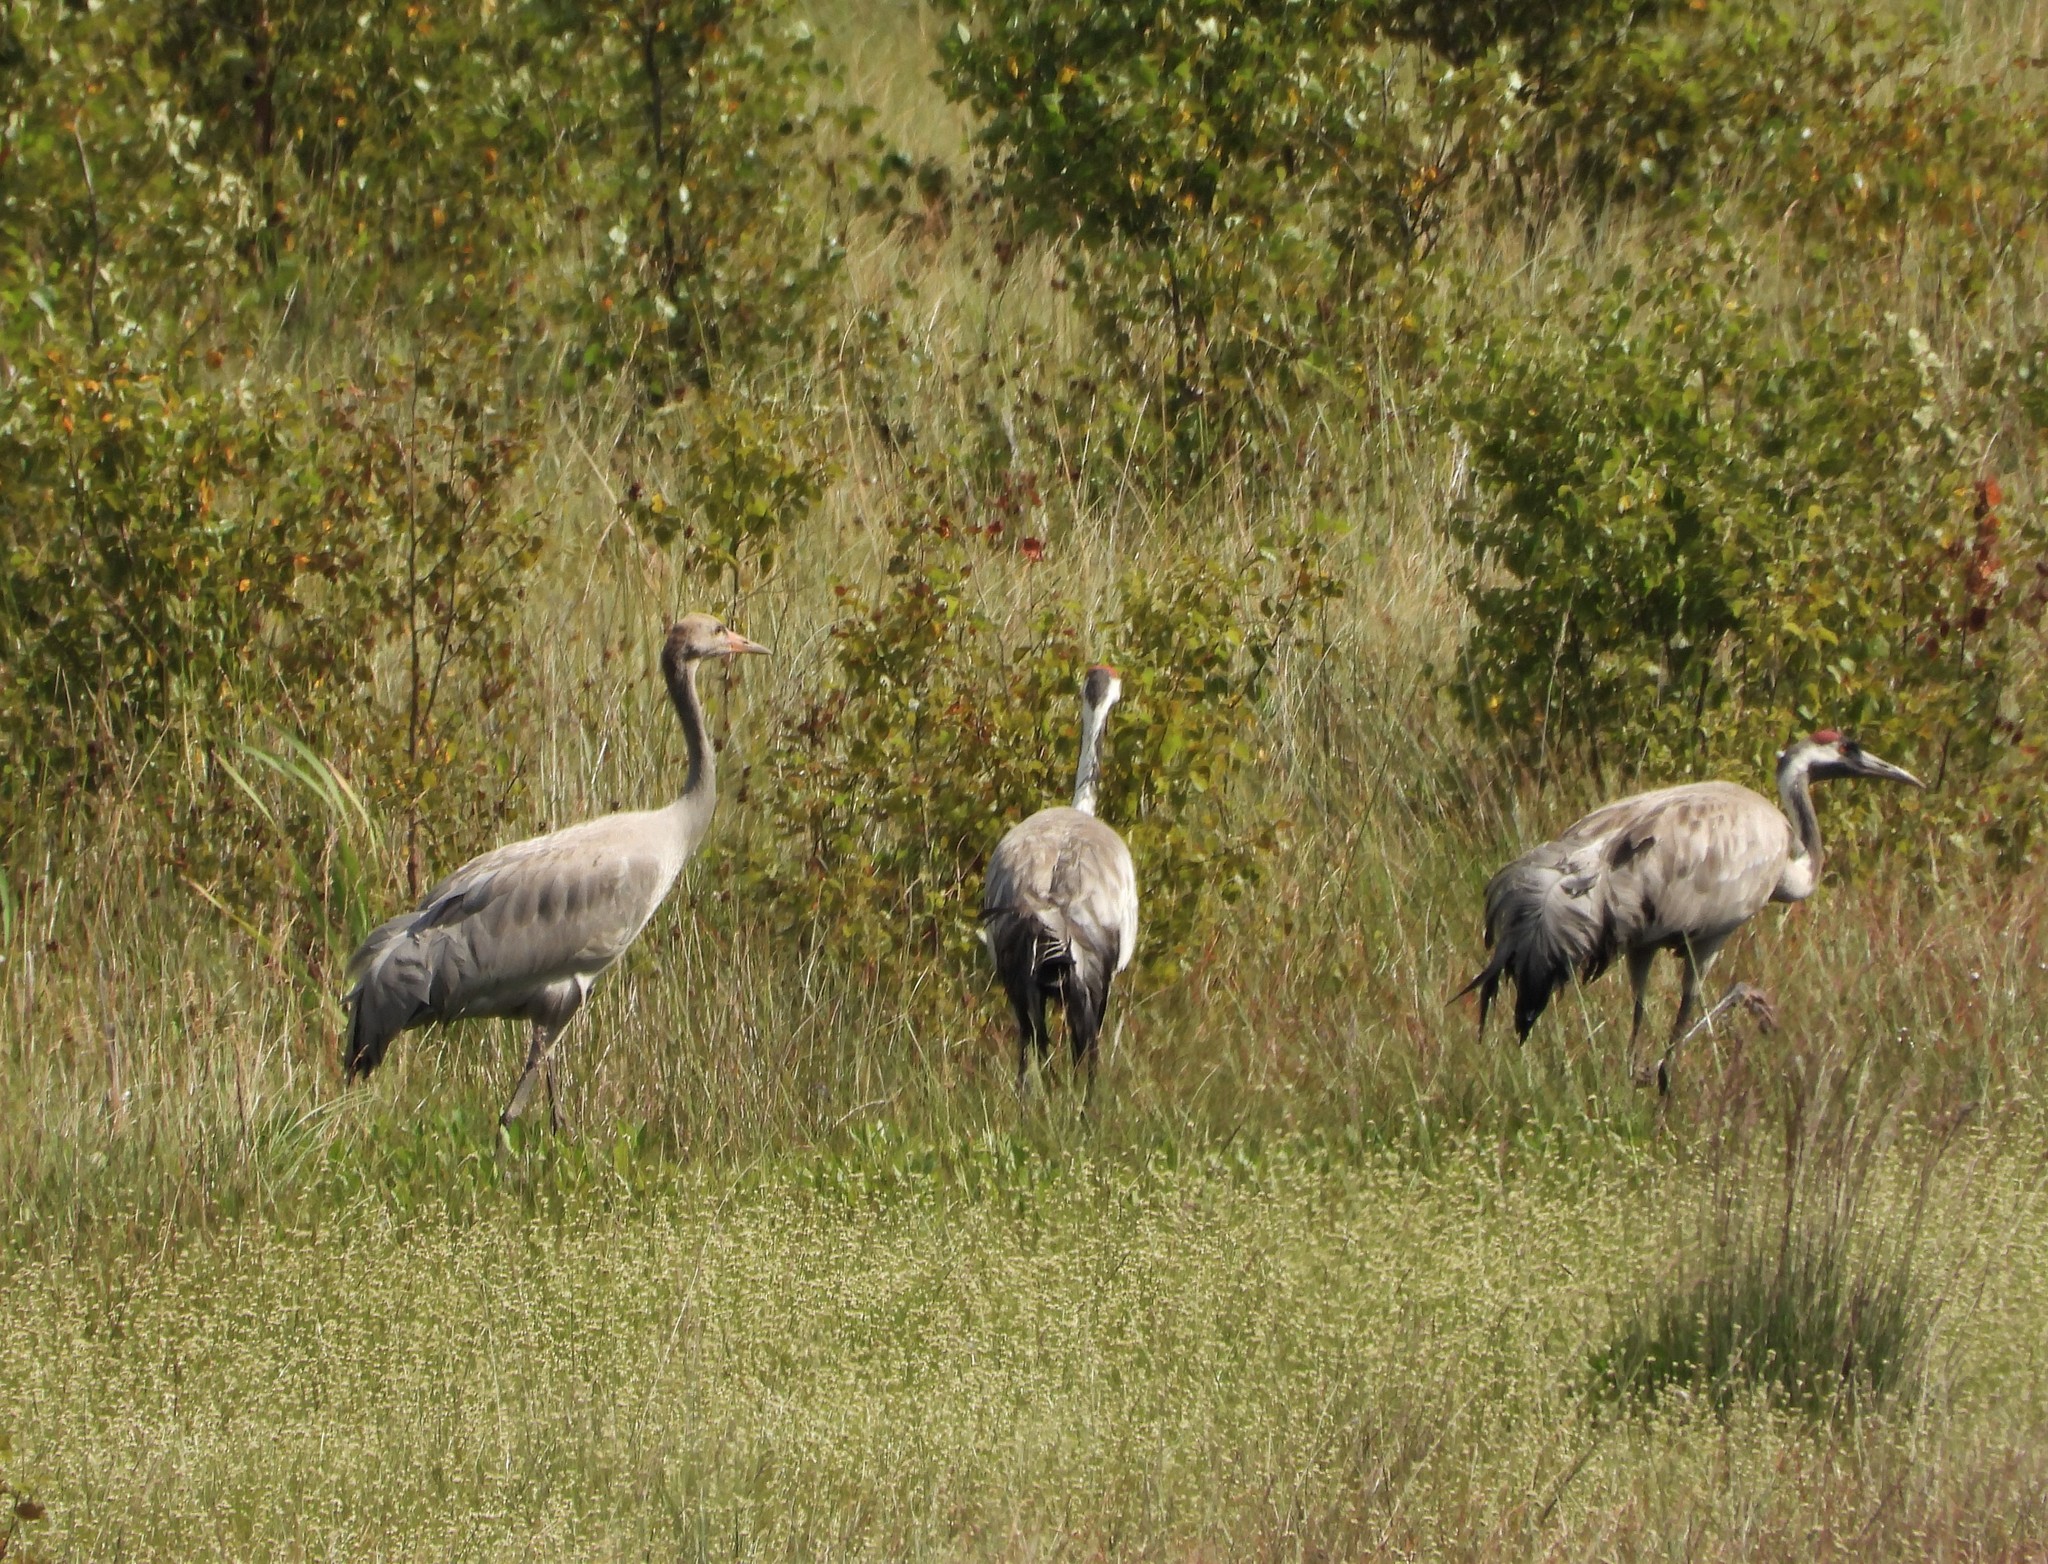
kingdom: Animalia
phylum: Chordata
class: Aves
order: Gruiformes
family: Gruidae
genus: Grus
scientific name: Grus grus
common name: Common crane
